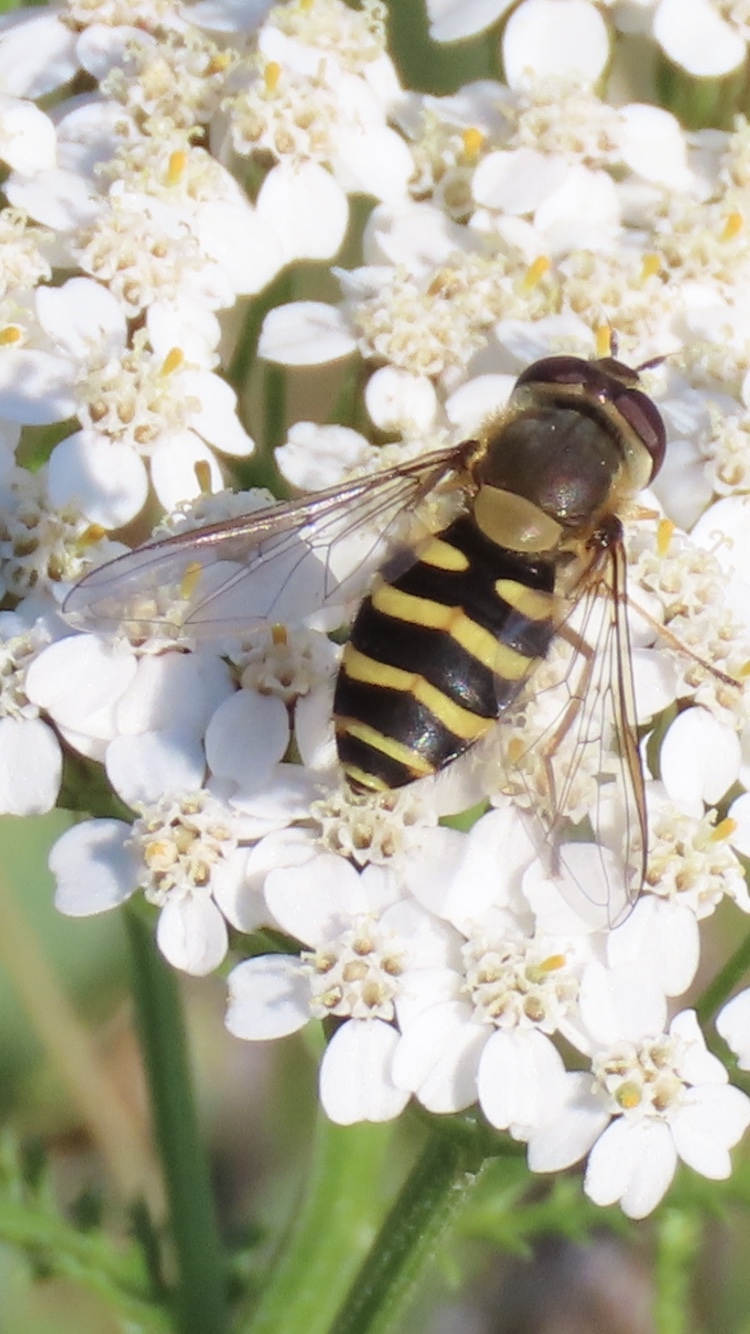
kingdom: Animalia
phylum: Arthropoda
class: Insecta
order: Diptera
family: Syrphidae
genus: Syrphus
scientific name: Syrphus
